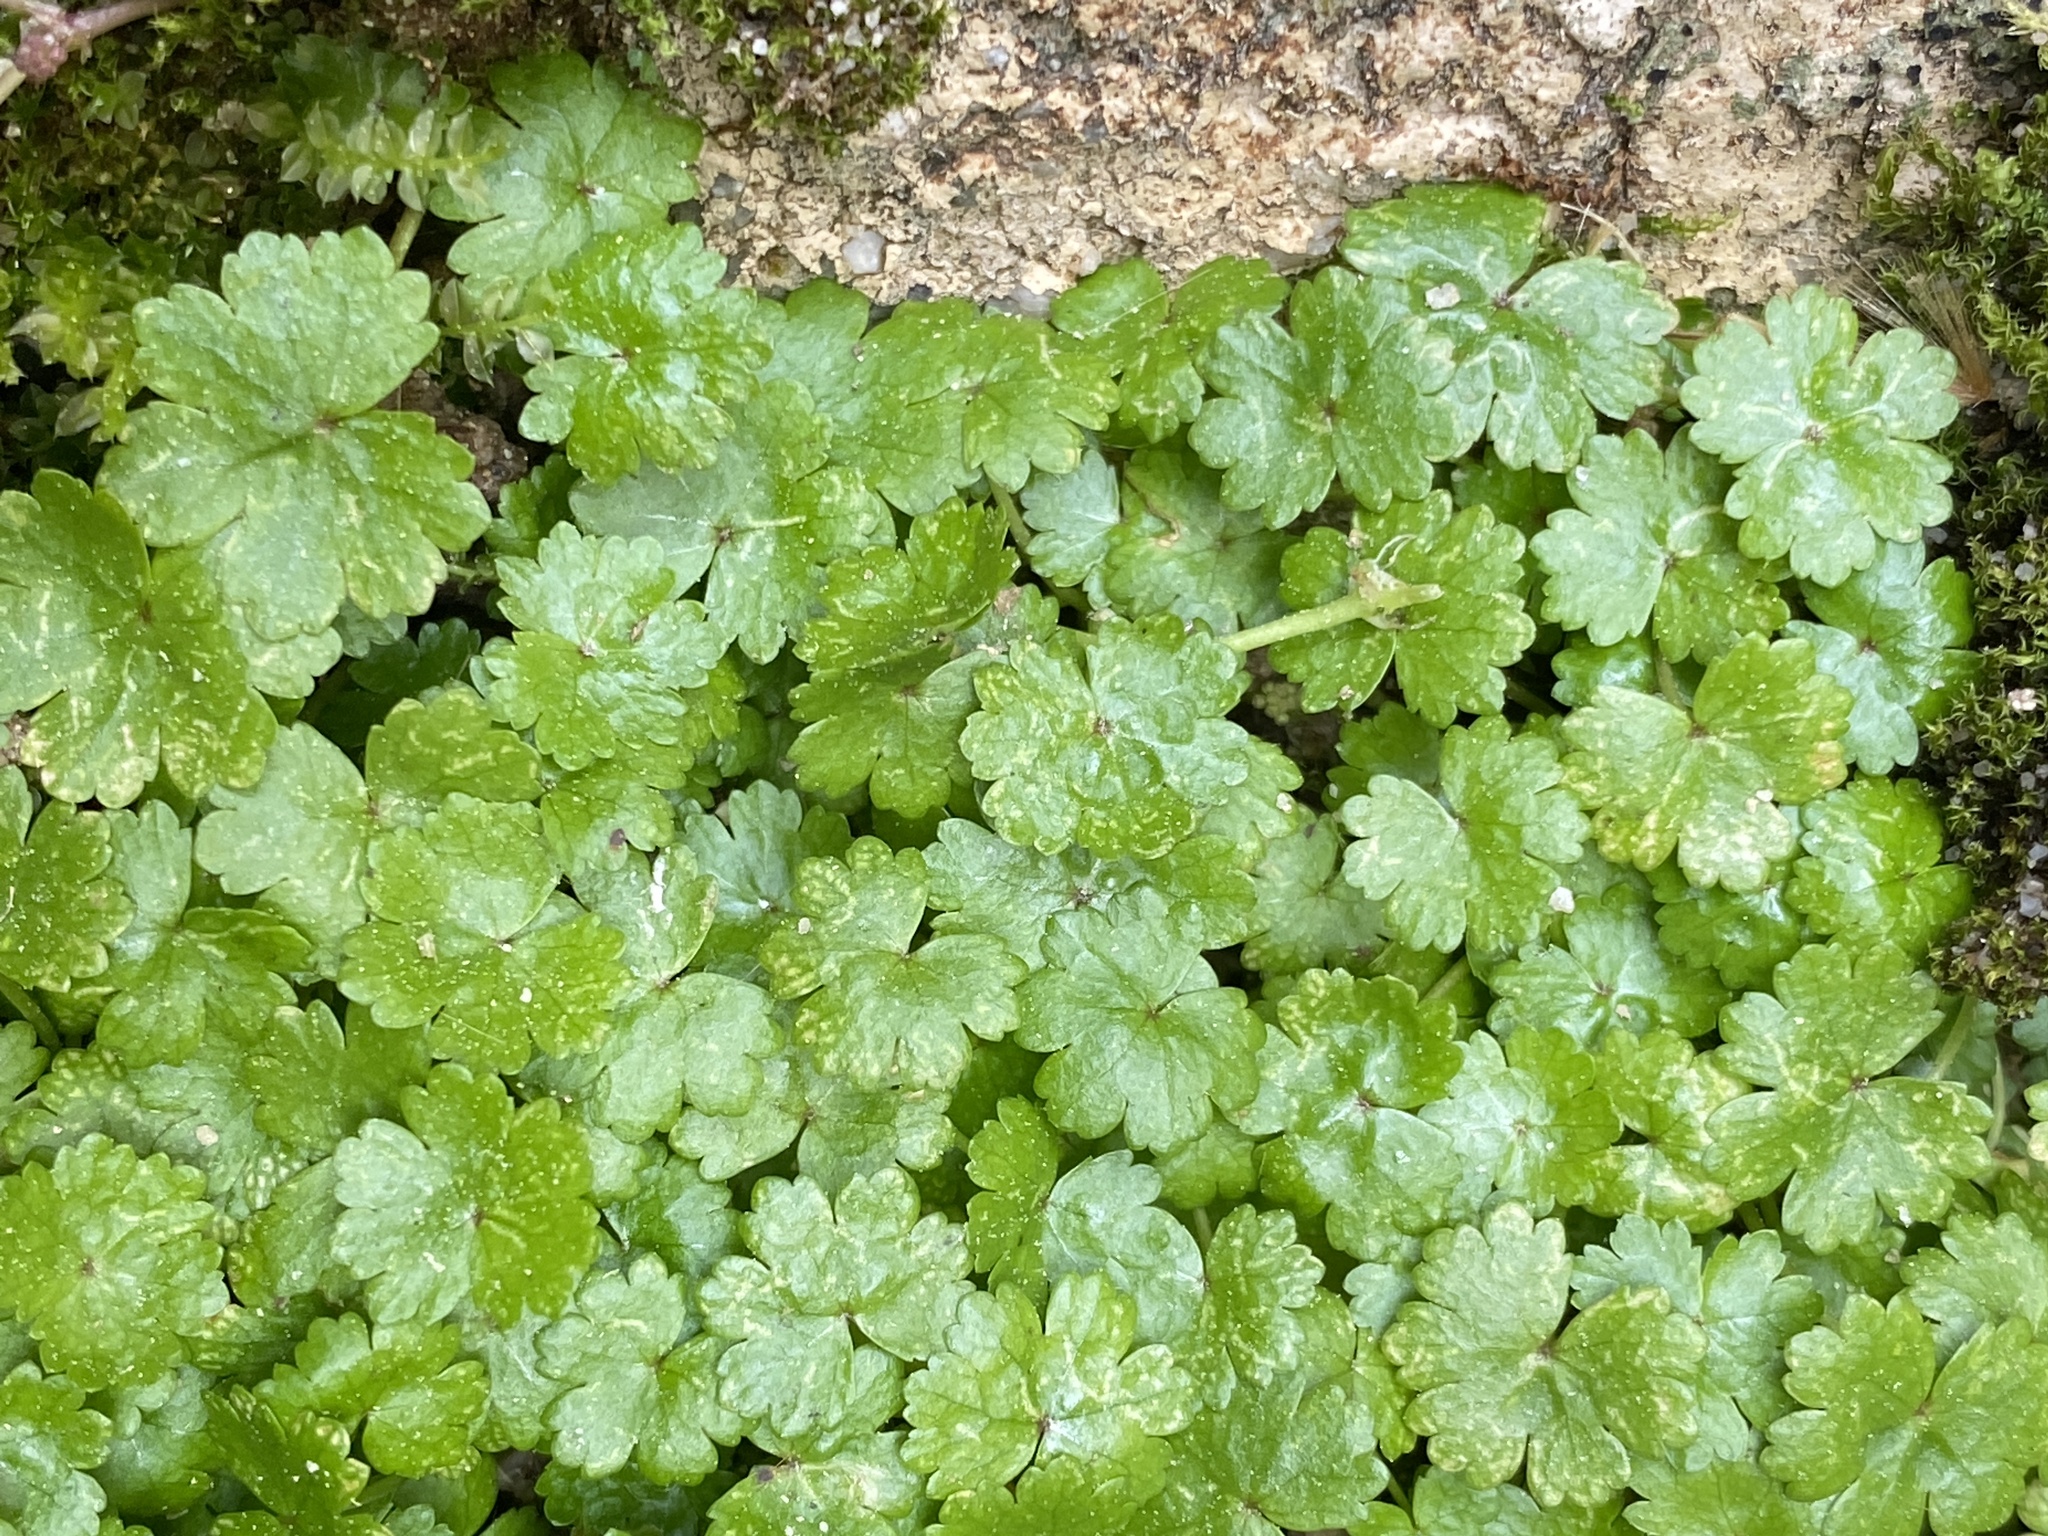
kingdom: Plantae
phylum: Tracheophyta
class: Magnoliopsida
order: Apiales
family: Araliaceae
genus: Hydrocotyle
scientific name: Hydrocotyle sibthorpioides
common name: Lawn marshpennywort
